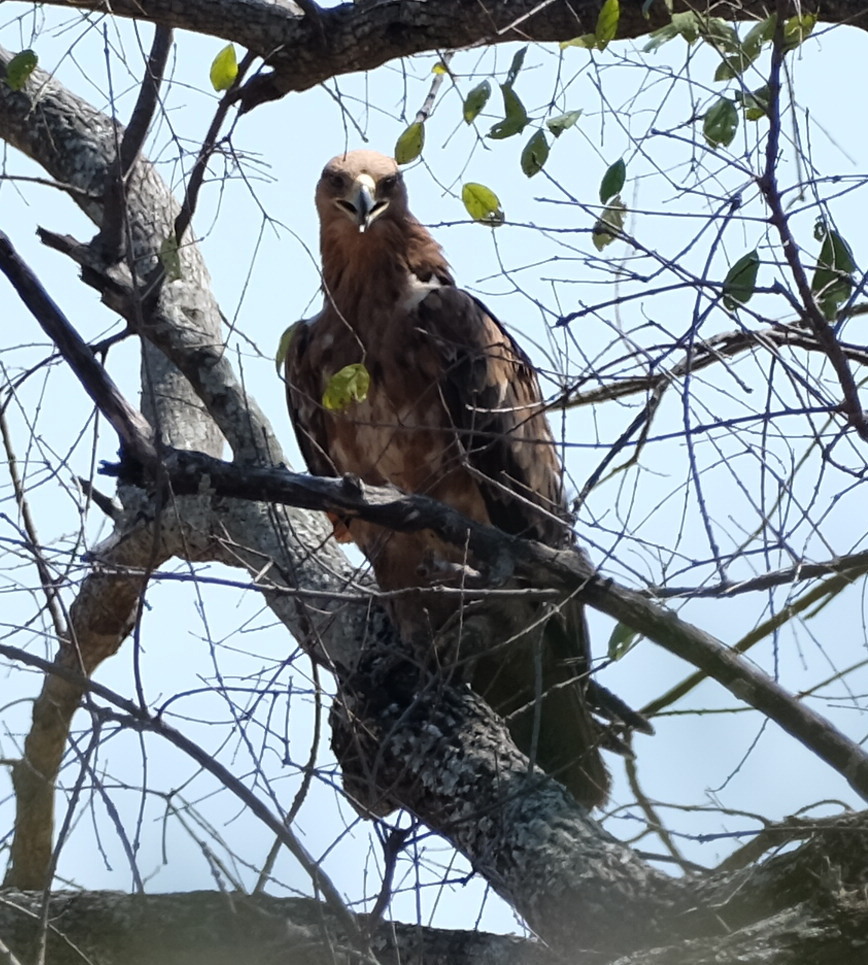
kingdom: Animalia
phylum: Chordata
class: Aves
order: Accipitriformes
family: Accipitridae
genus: Aquila
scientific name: Aquila rapax
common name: Tawny eagle
